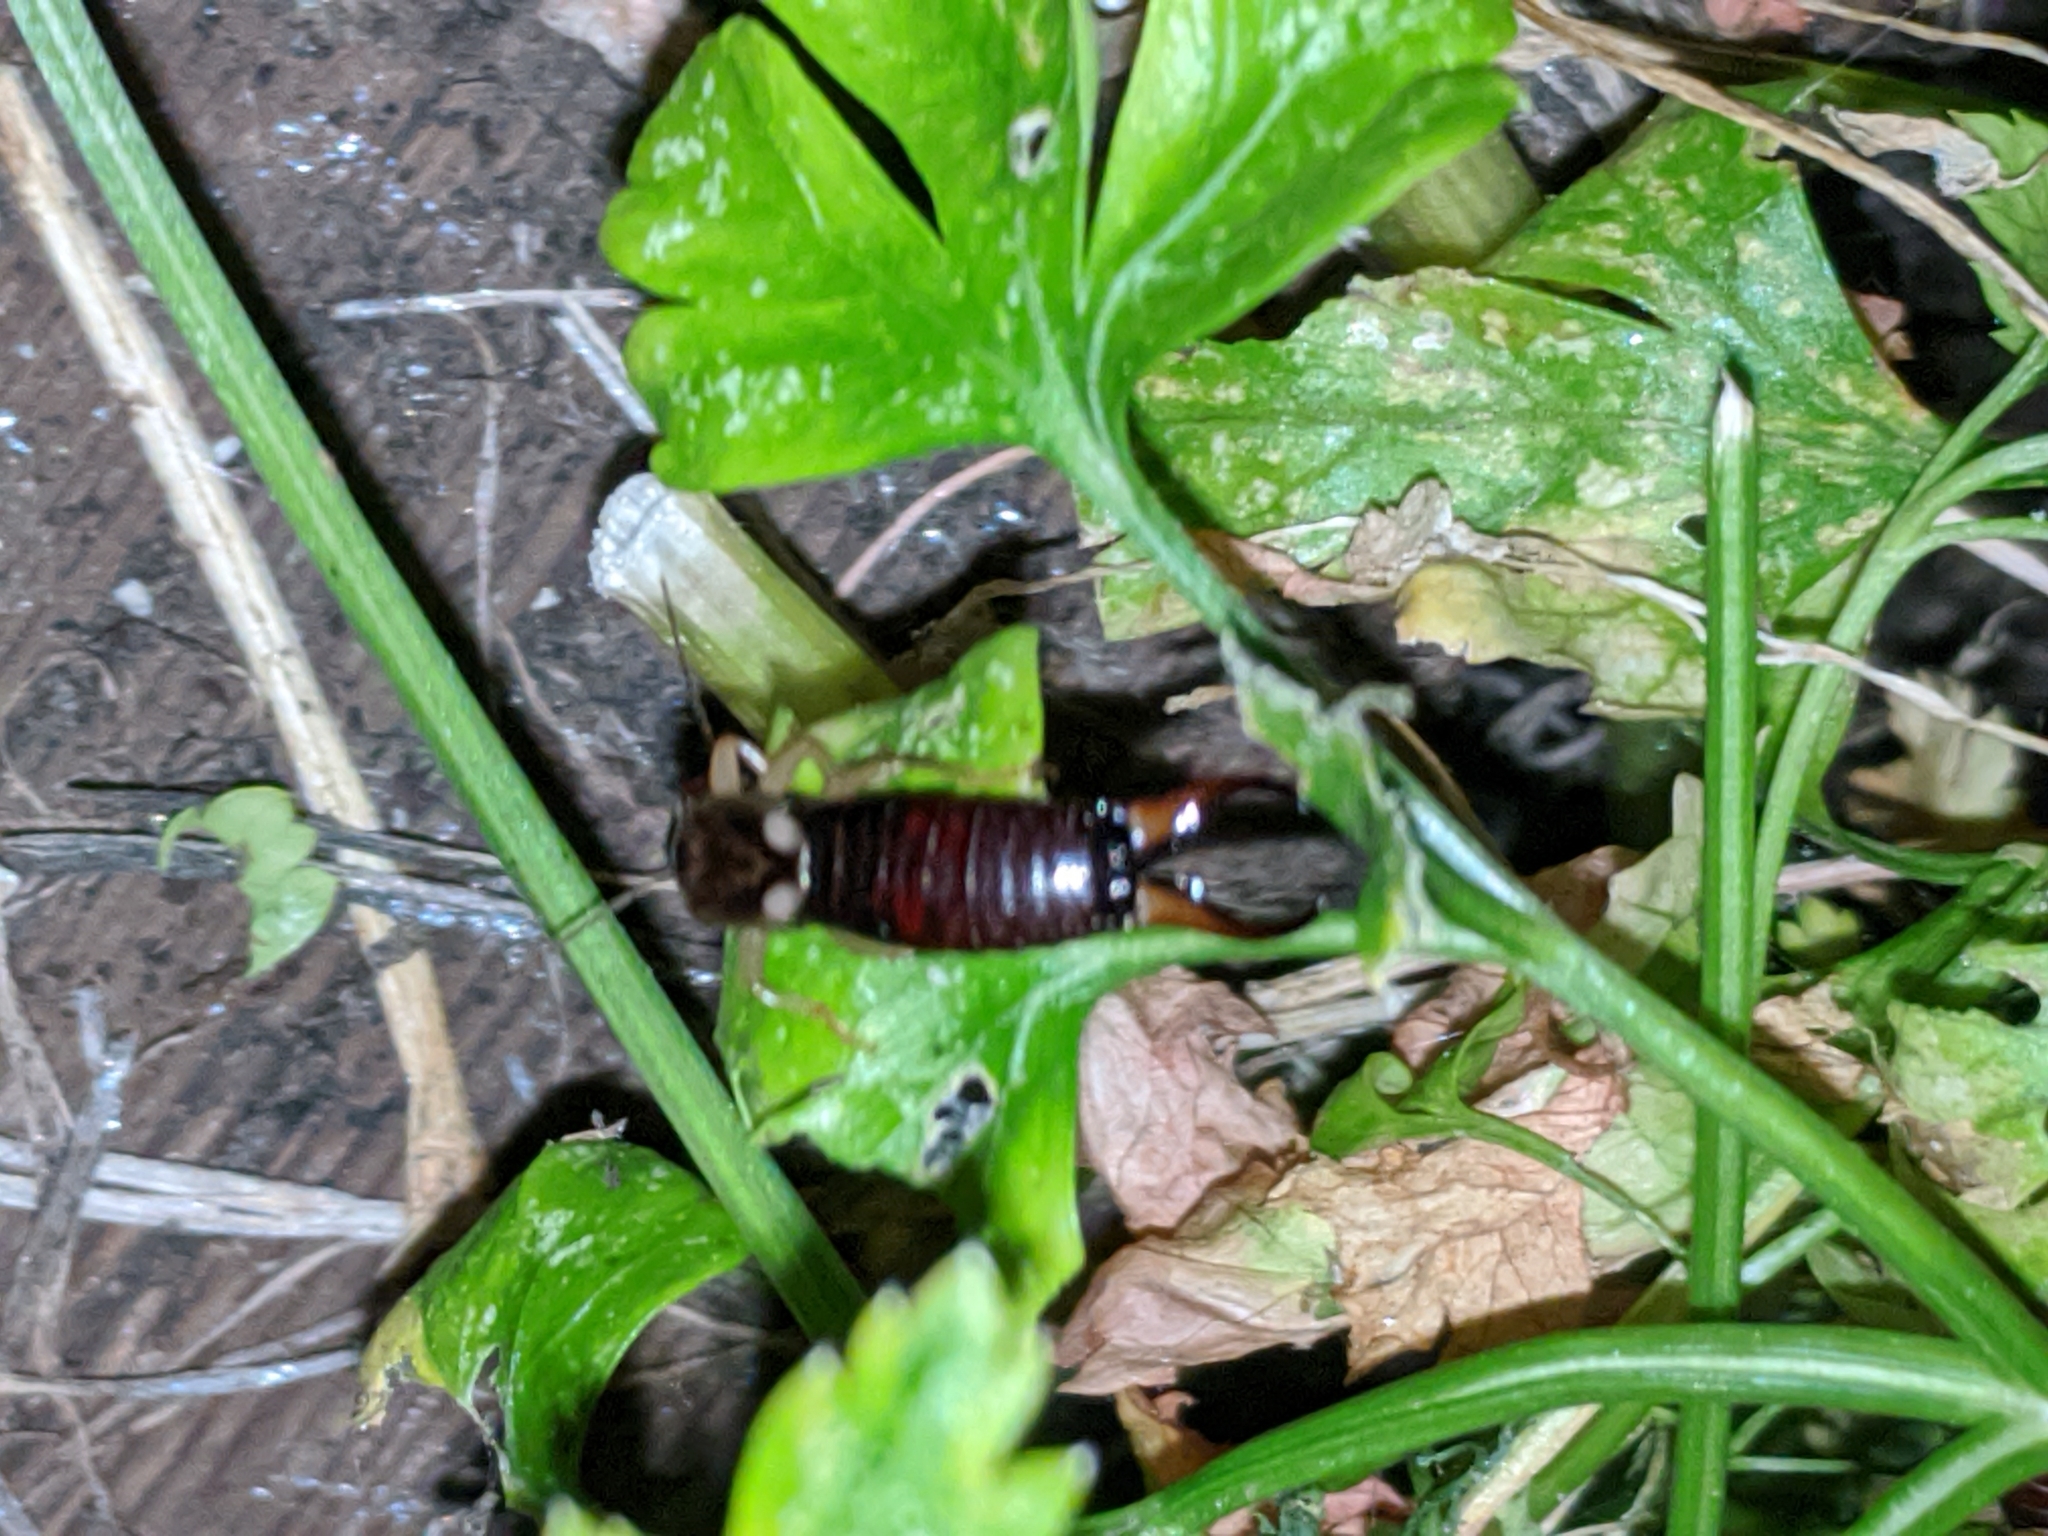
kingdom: Animalia
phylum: Arthropoda
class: Insecta
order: Dermaptera
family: Forficulidae
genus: Forficula
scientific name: Forficula
